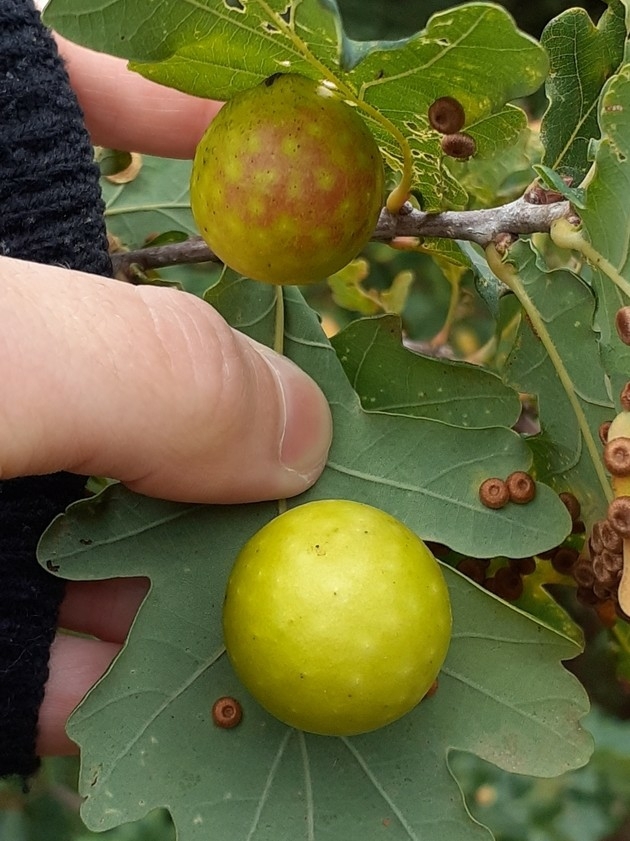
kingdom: Animalia
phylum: Arthropoda
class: Insecta
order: Hymenoptera
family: Cynipidae
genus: Cynips
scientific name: Cynips quercusfolii
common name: Cherry gall
